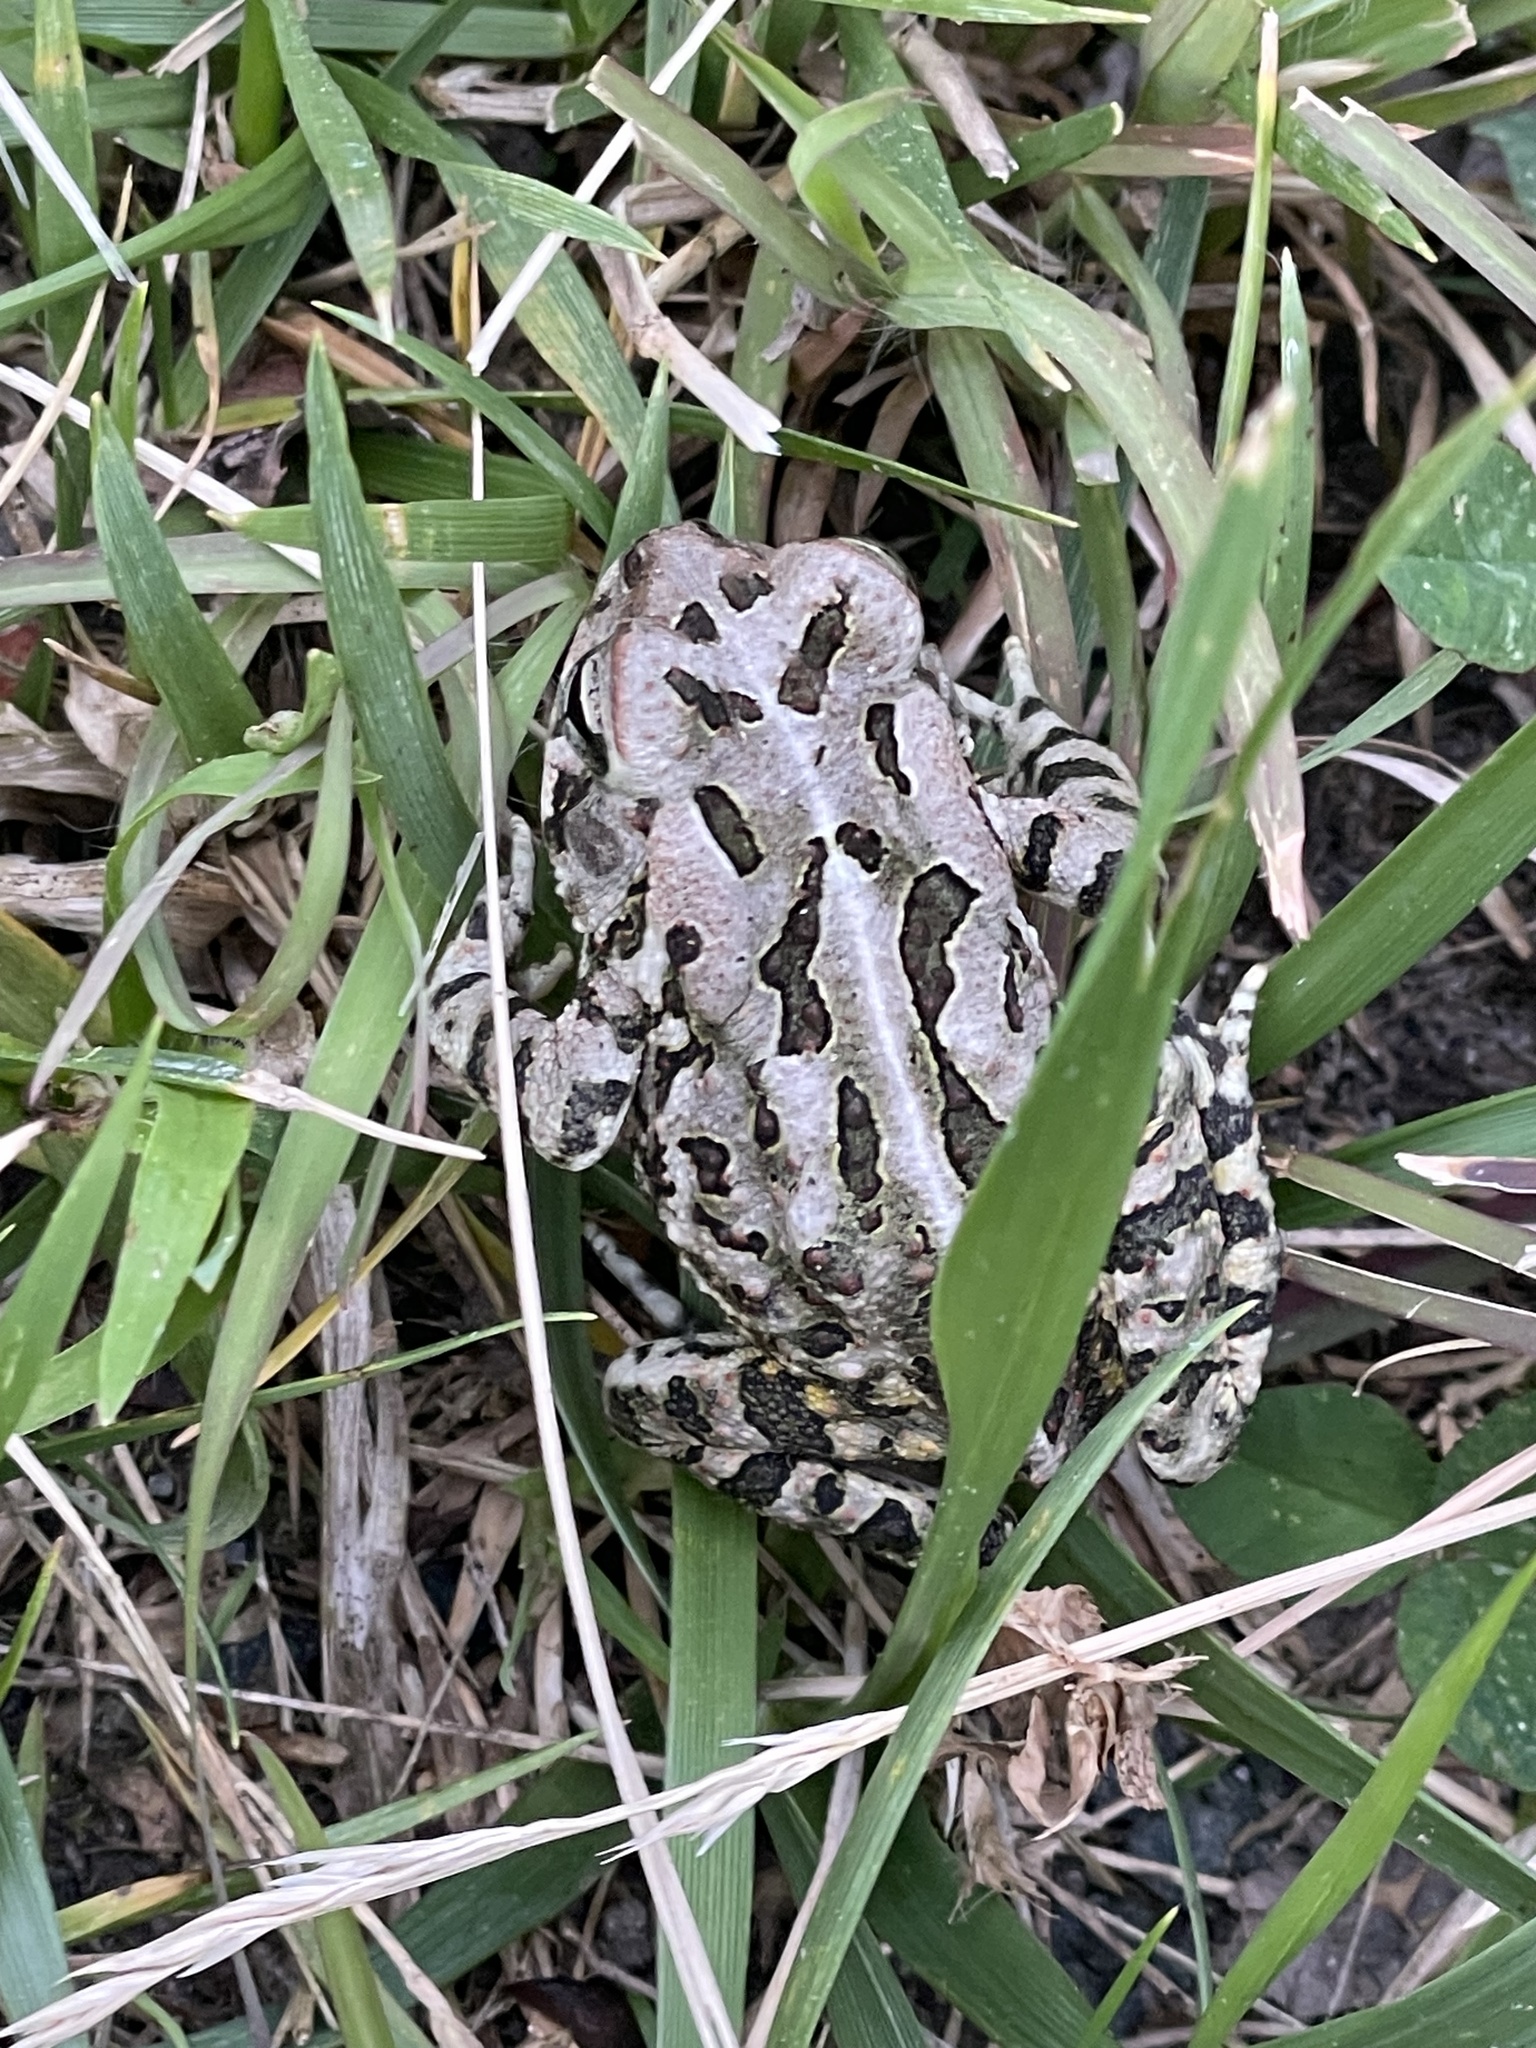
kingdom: Animalia
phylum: Chordata
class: Amphibia
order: Anura
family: Bufonidae
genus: Anaxyrus
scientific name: Anaxyrus fowleri
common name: Fowler's toad
